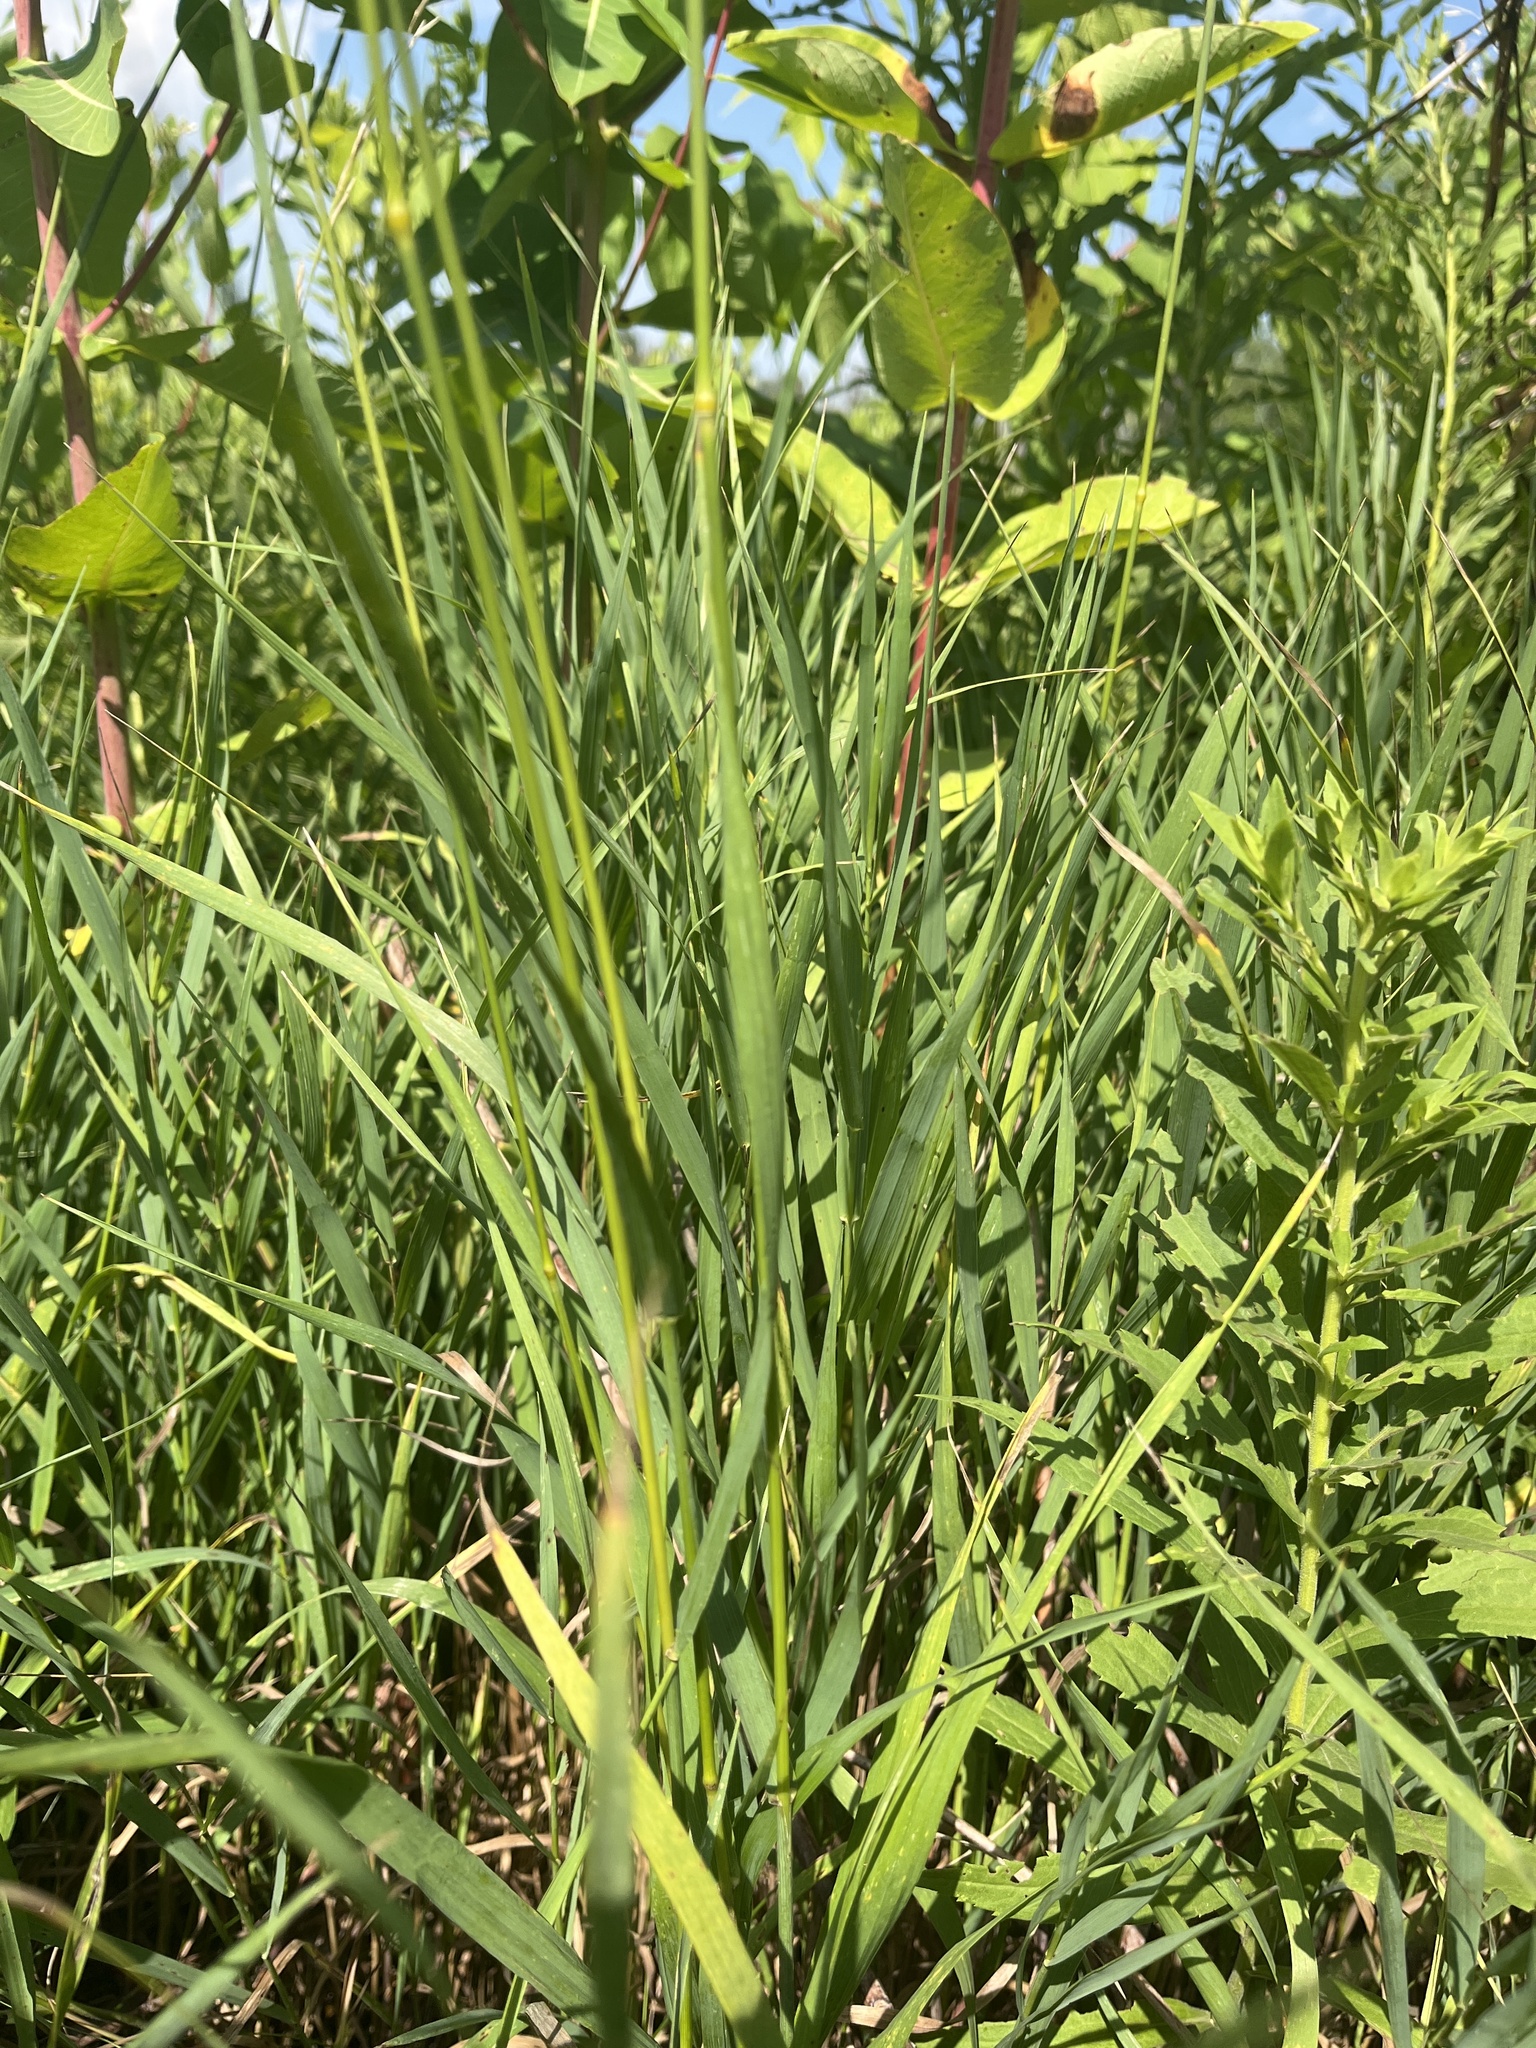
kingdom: Plantae
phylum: Tracheophyta
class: Liliopsida
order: Poales
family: Poaceae
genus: Bromus
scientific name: Bromus inermis
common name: Smooth brome
